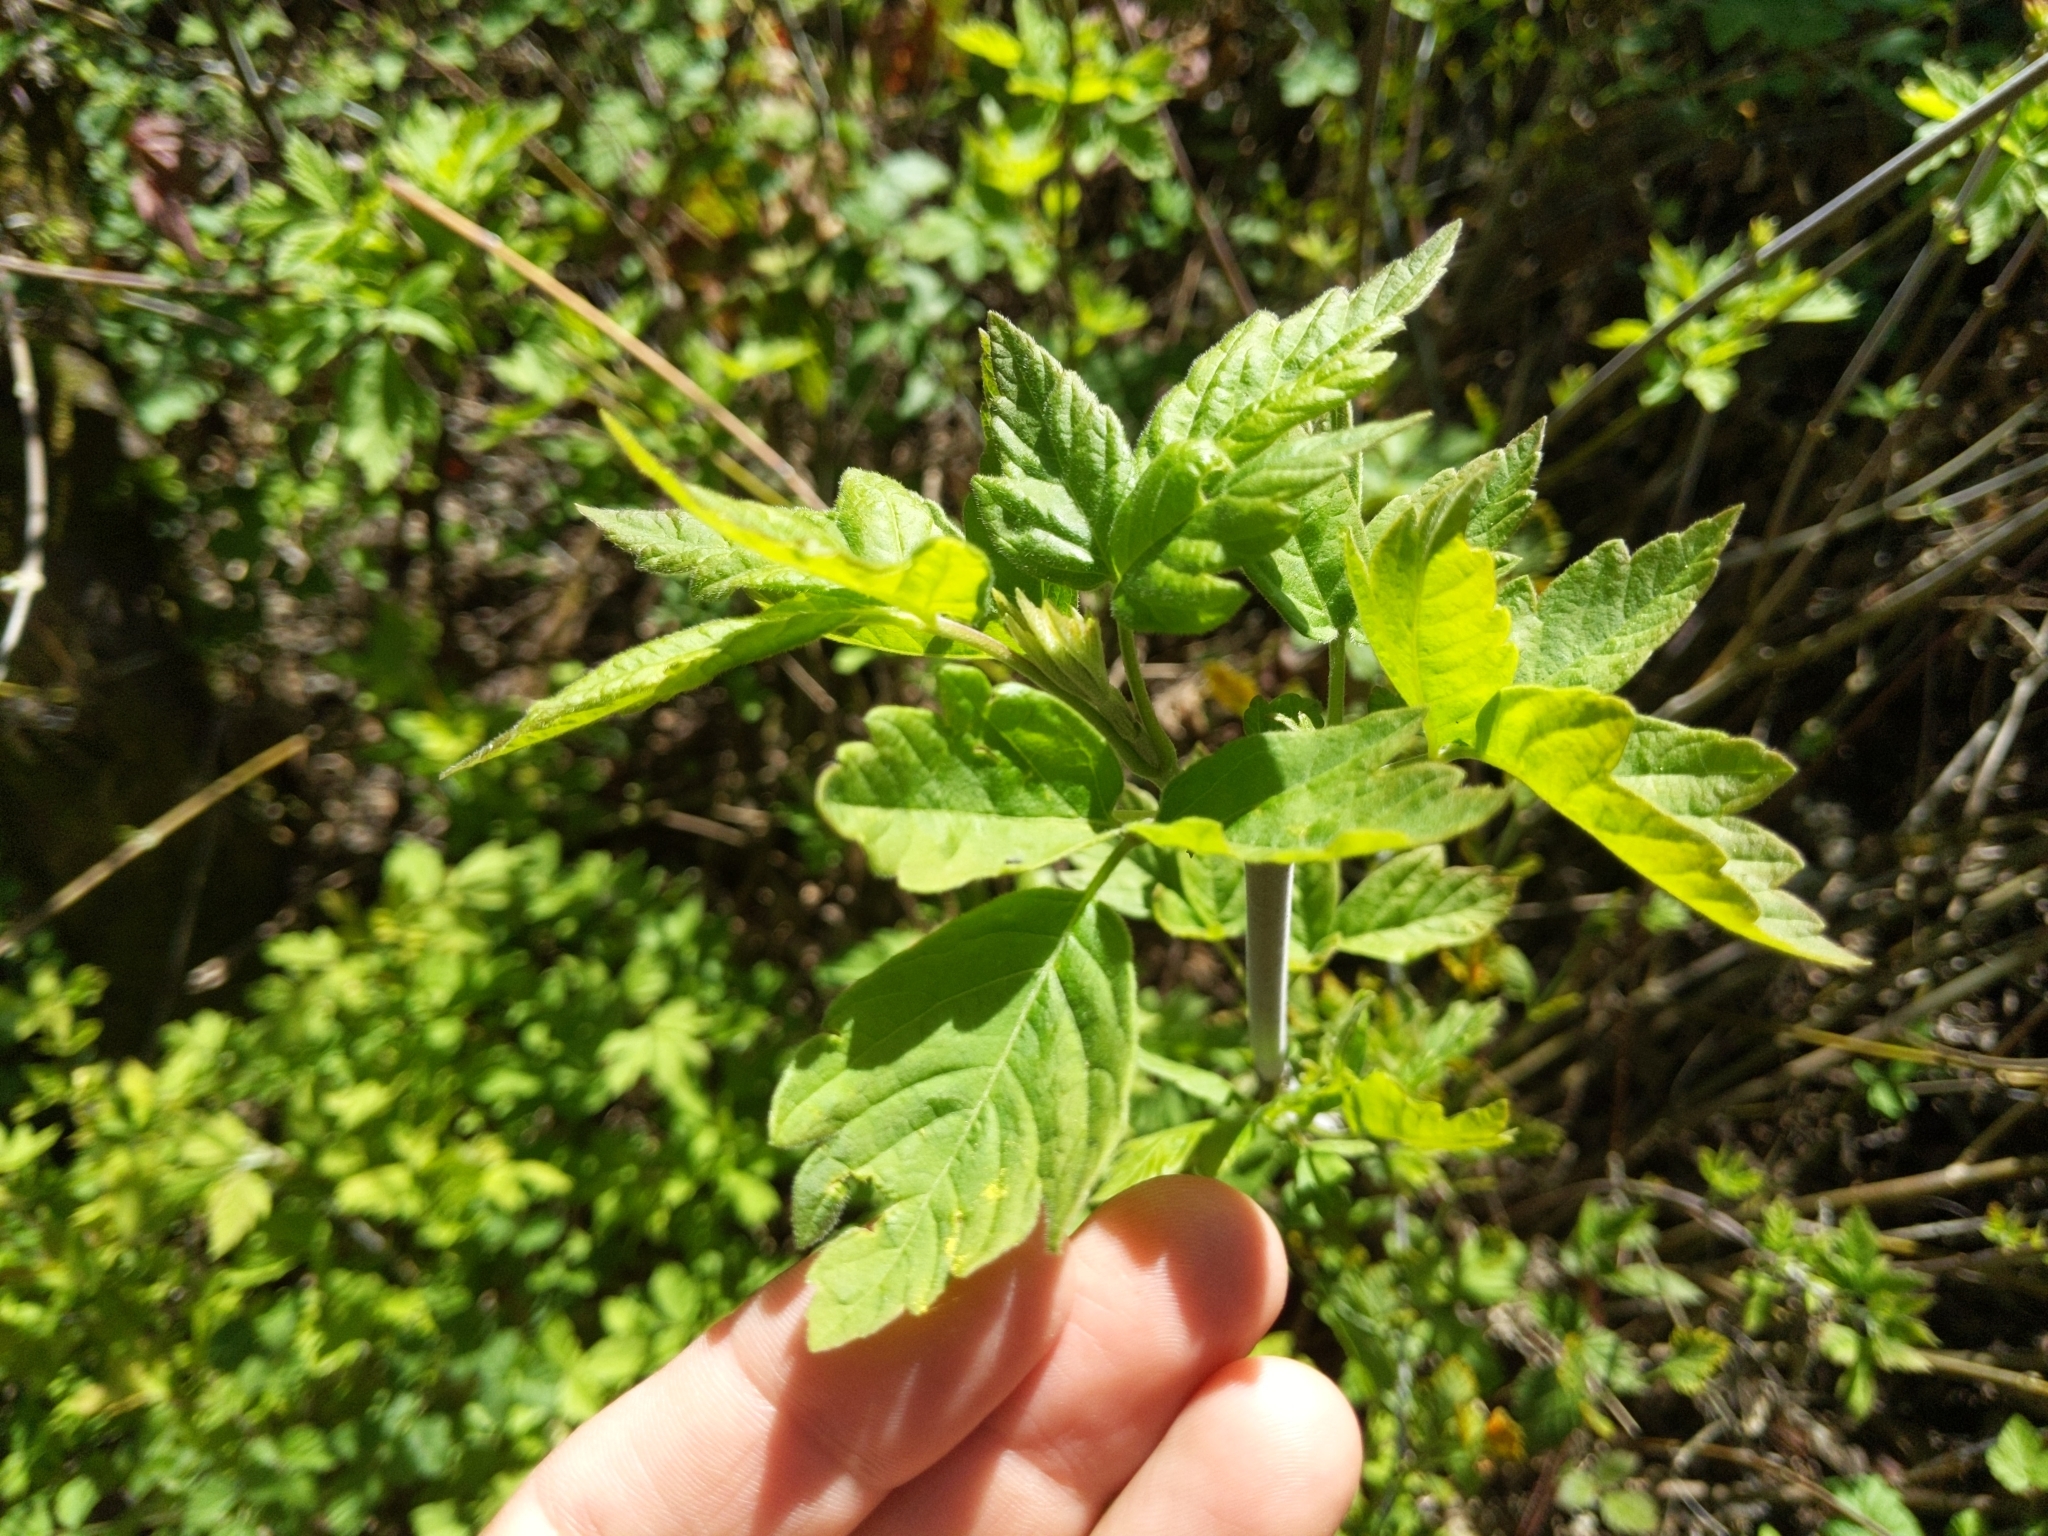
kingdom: Plantae
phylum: Tracheophyta
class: Magnoliopsida
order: Sapindales
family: Sapindaceae
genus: Acer
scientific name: Acer negundo
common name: Ashleaf maple
